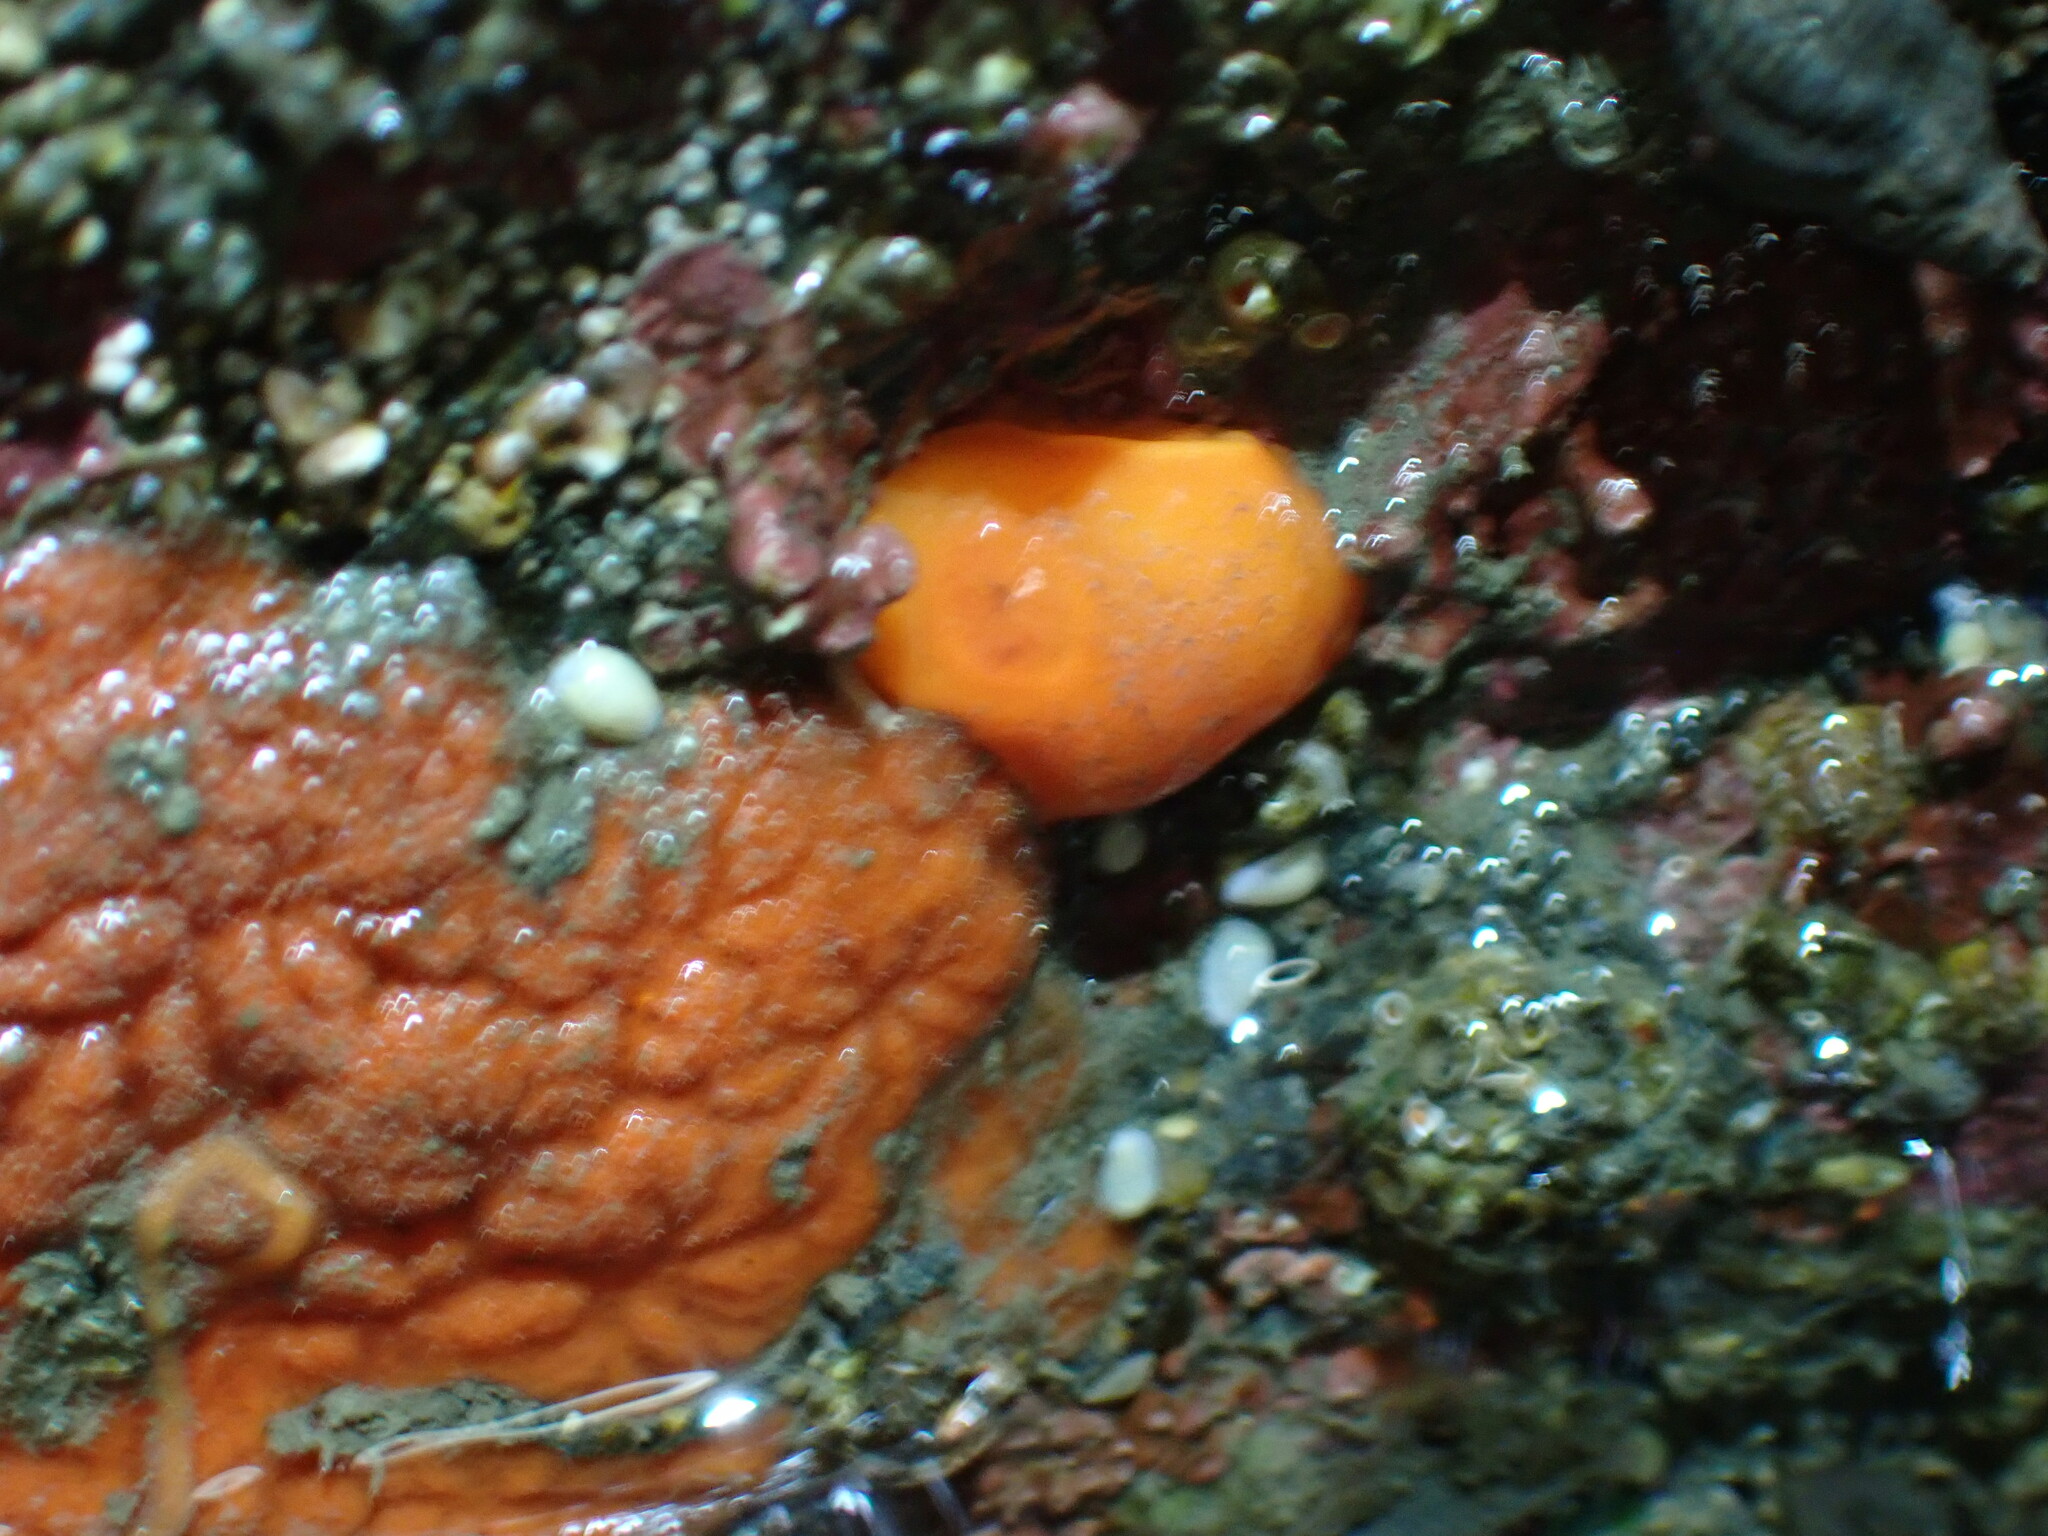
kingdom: Animalia
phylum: Mollusca
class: Gastropoda
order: Nudibranchia
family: Discodorididae
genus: Rostanga
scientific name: Rostanga pulchra
